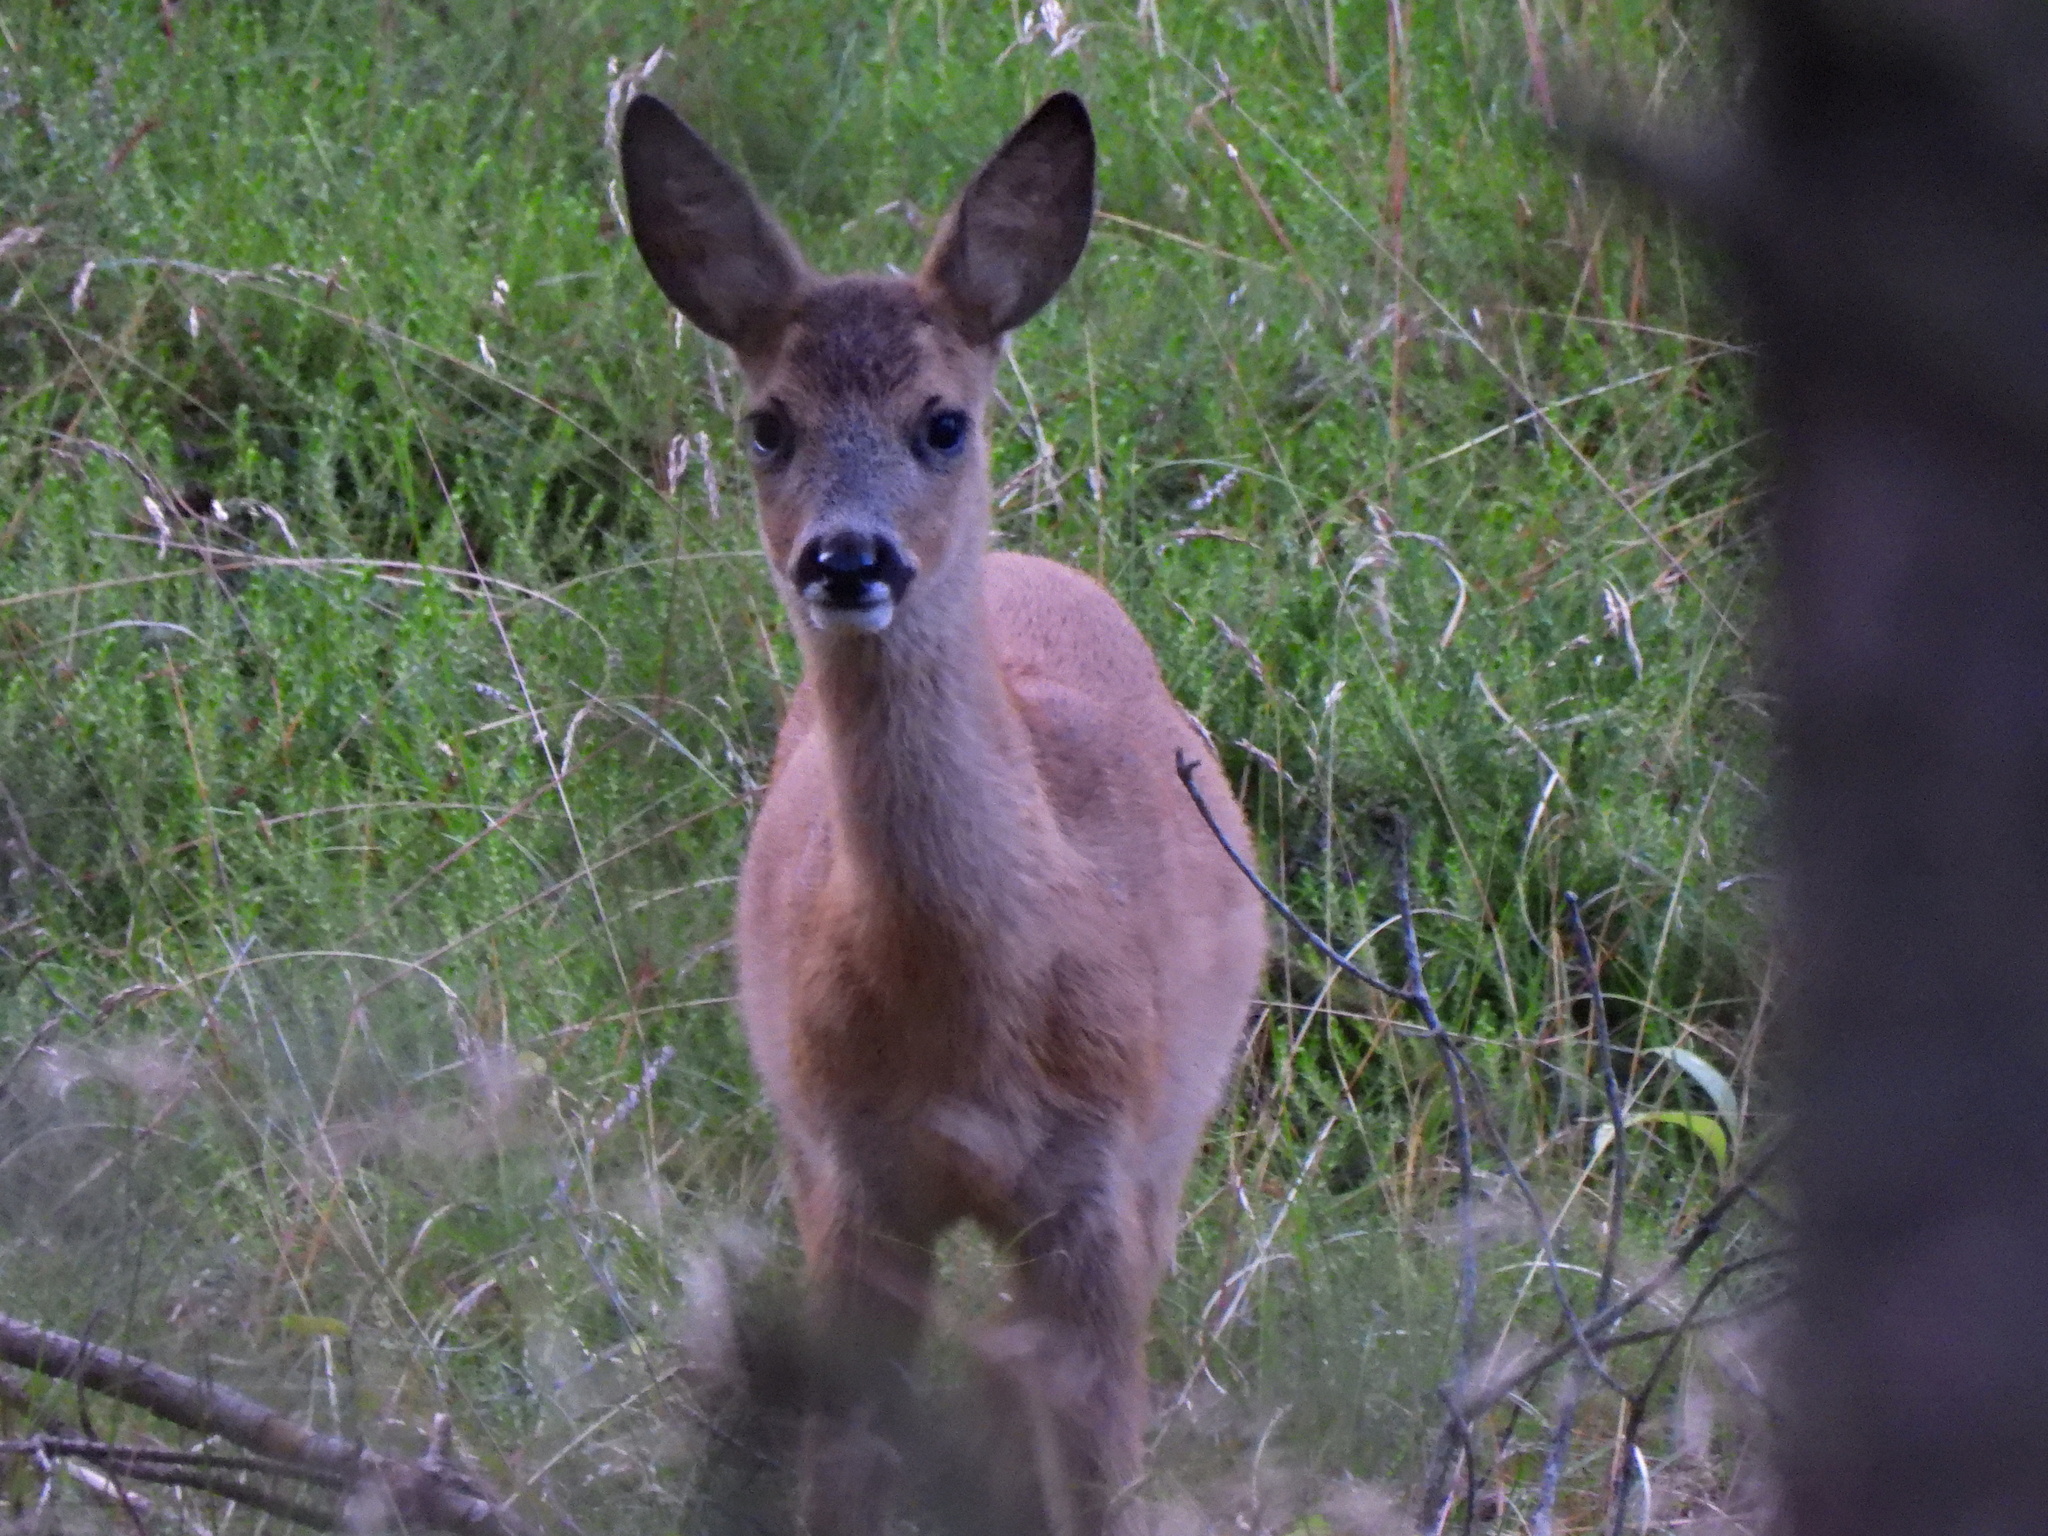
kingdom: Animalia
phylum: Chordata
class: Mammalia
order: Artiodactyla
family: Cervidae
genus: Capreolus
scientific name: Capreolus capreolus
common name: Western roe deer
